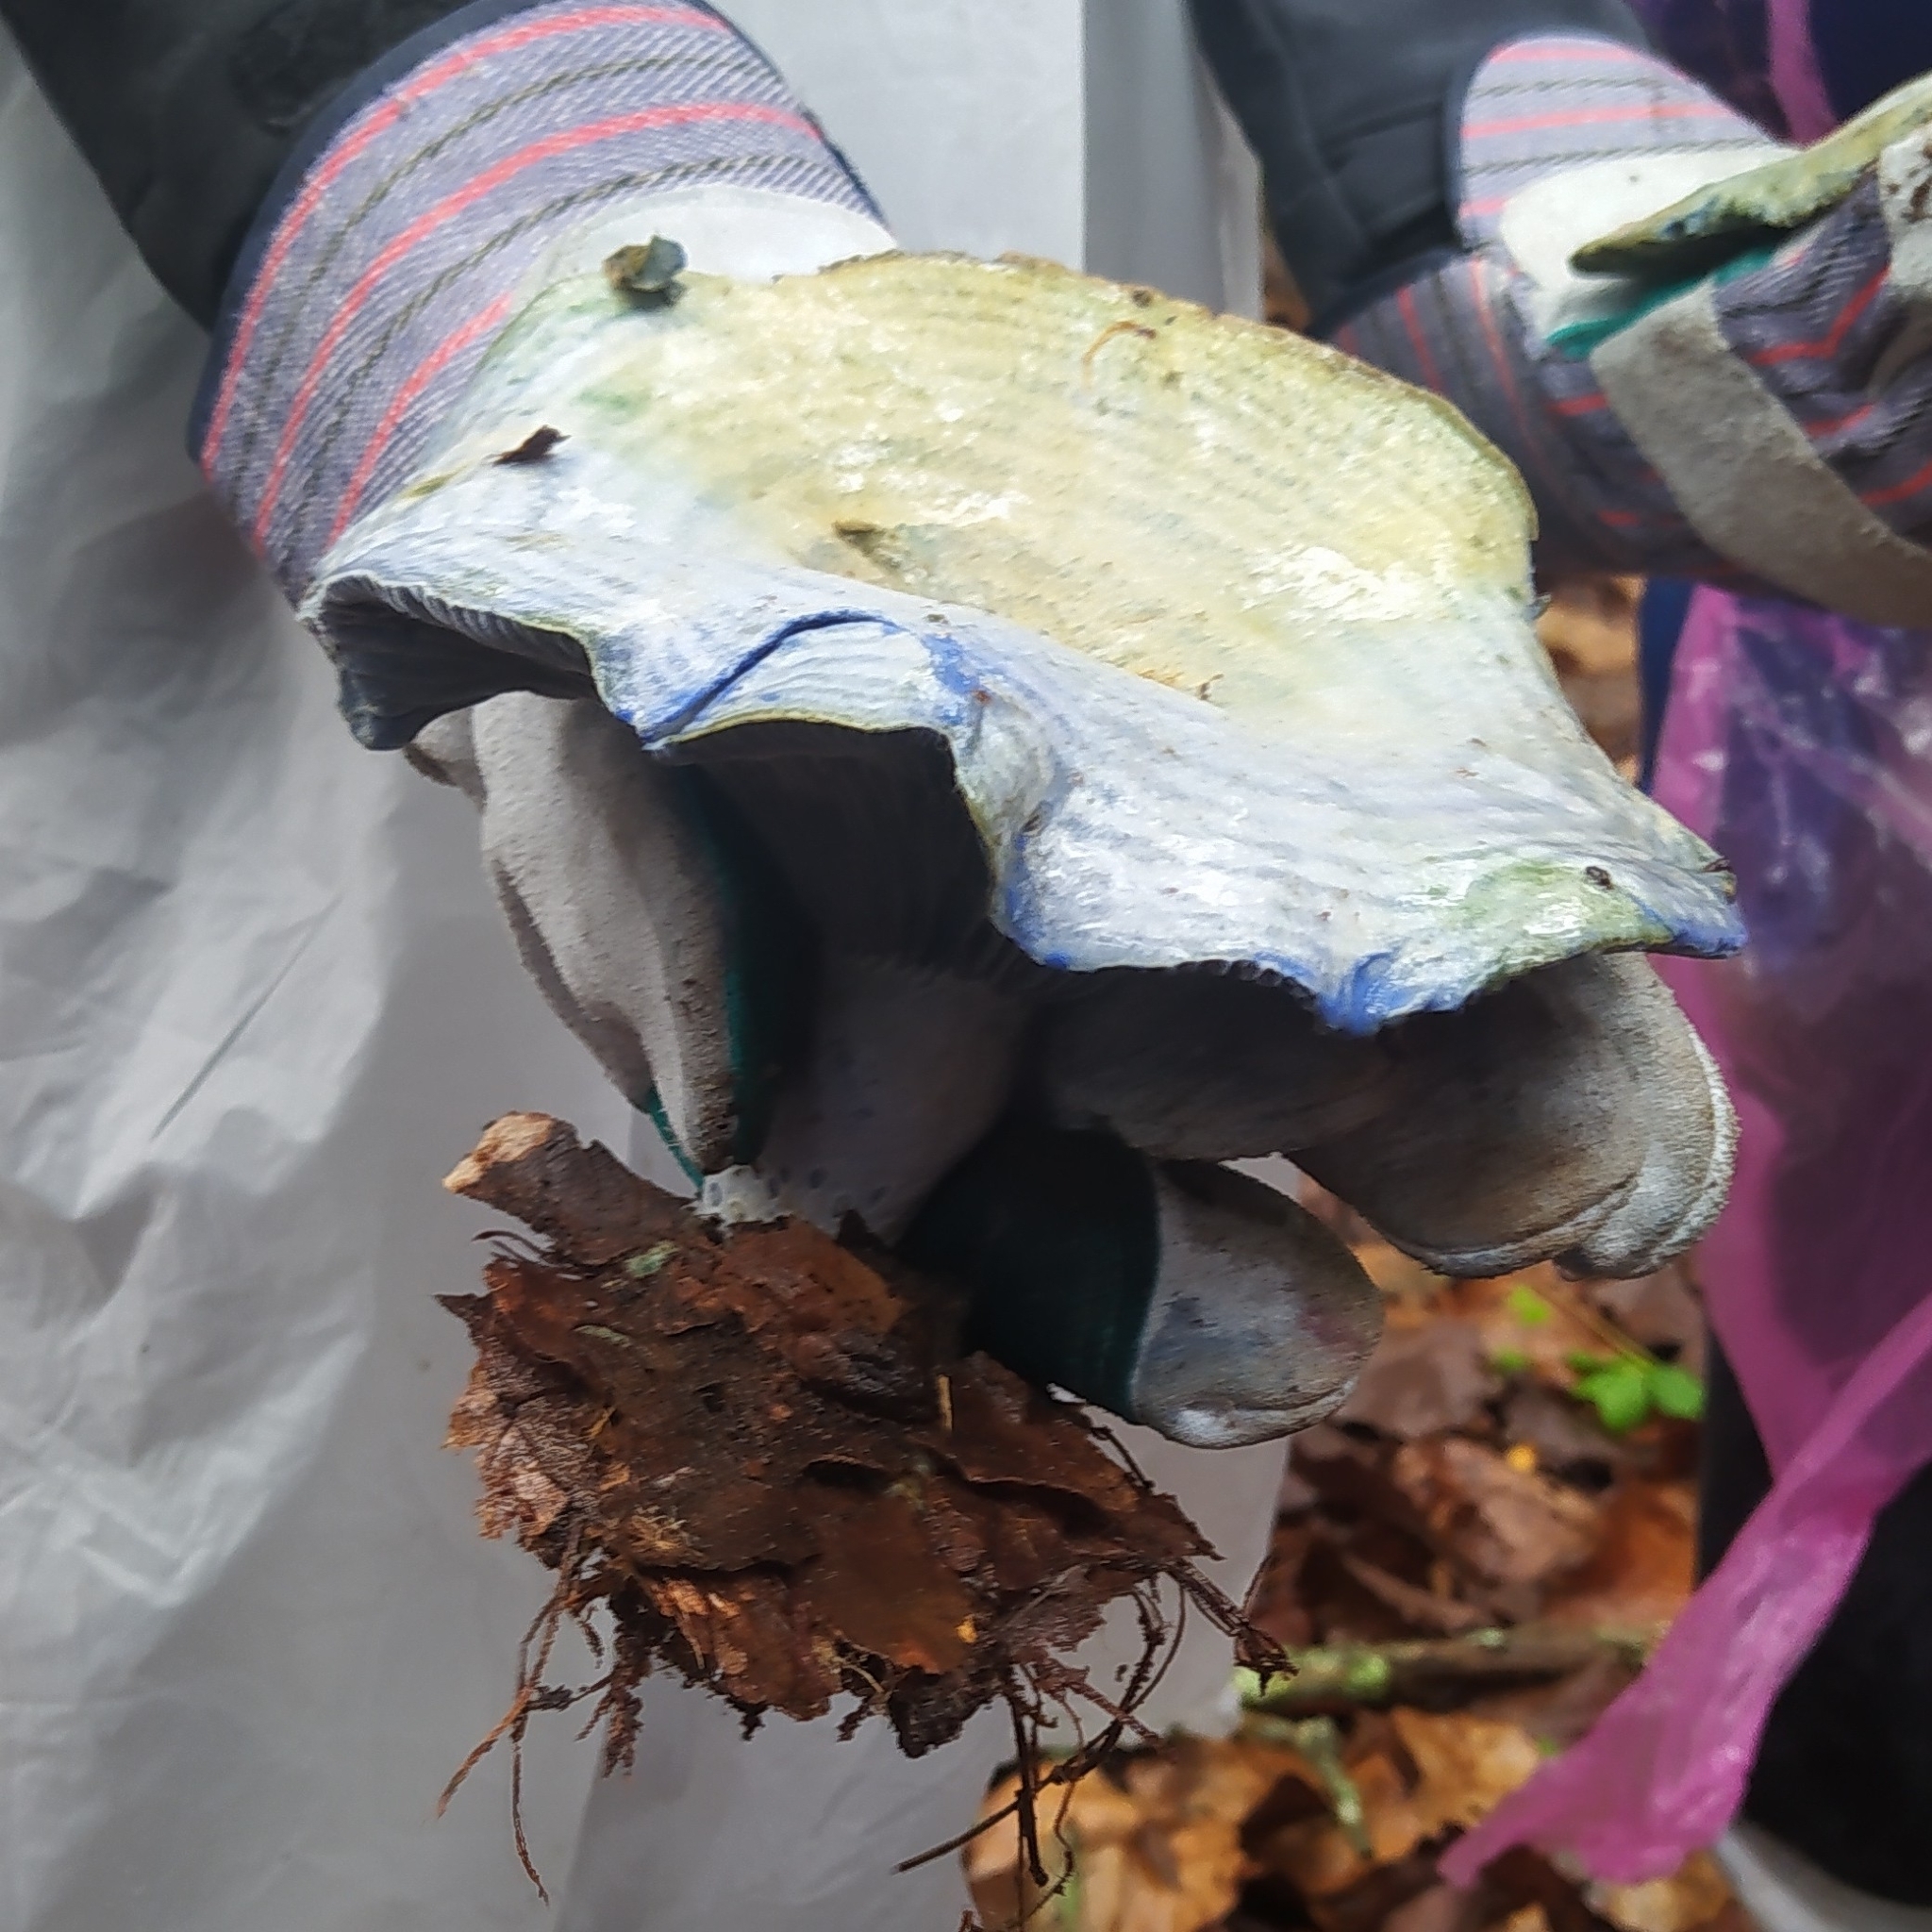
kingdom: Fungi
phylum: Basidiomycota
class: Agaricomycetes
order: Russulales
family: Russulaceae
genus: Lactarius
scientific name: Lactarius indigo
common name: Indigo milk cap
